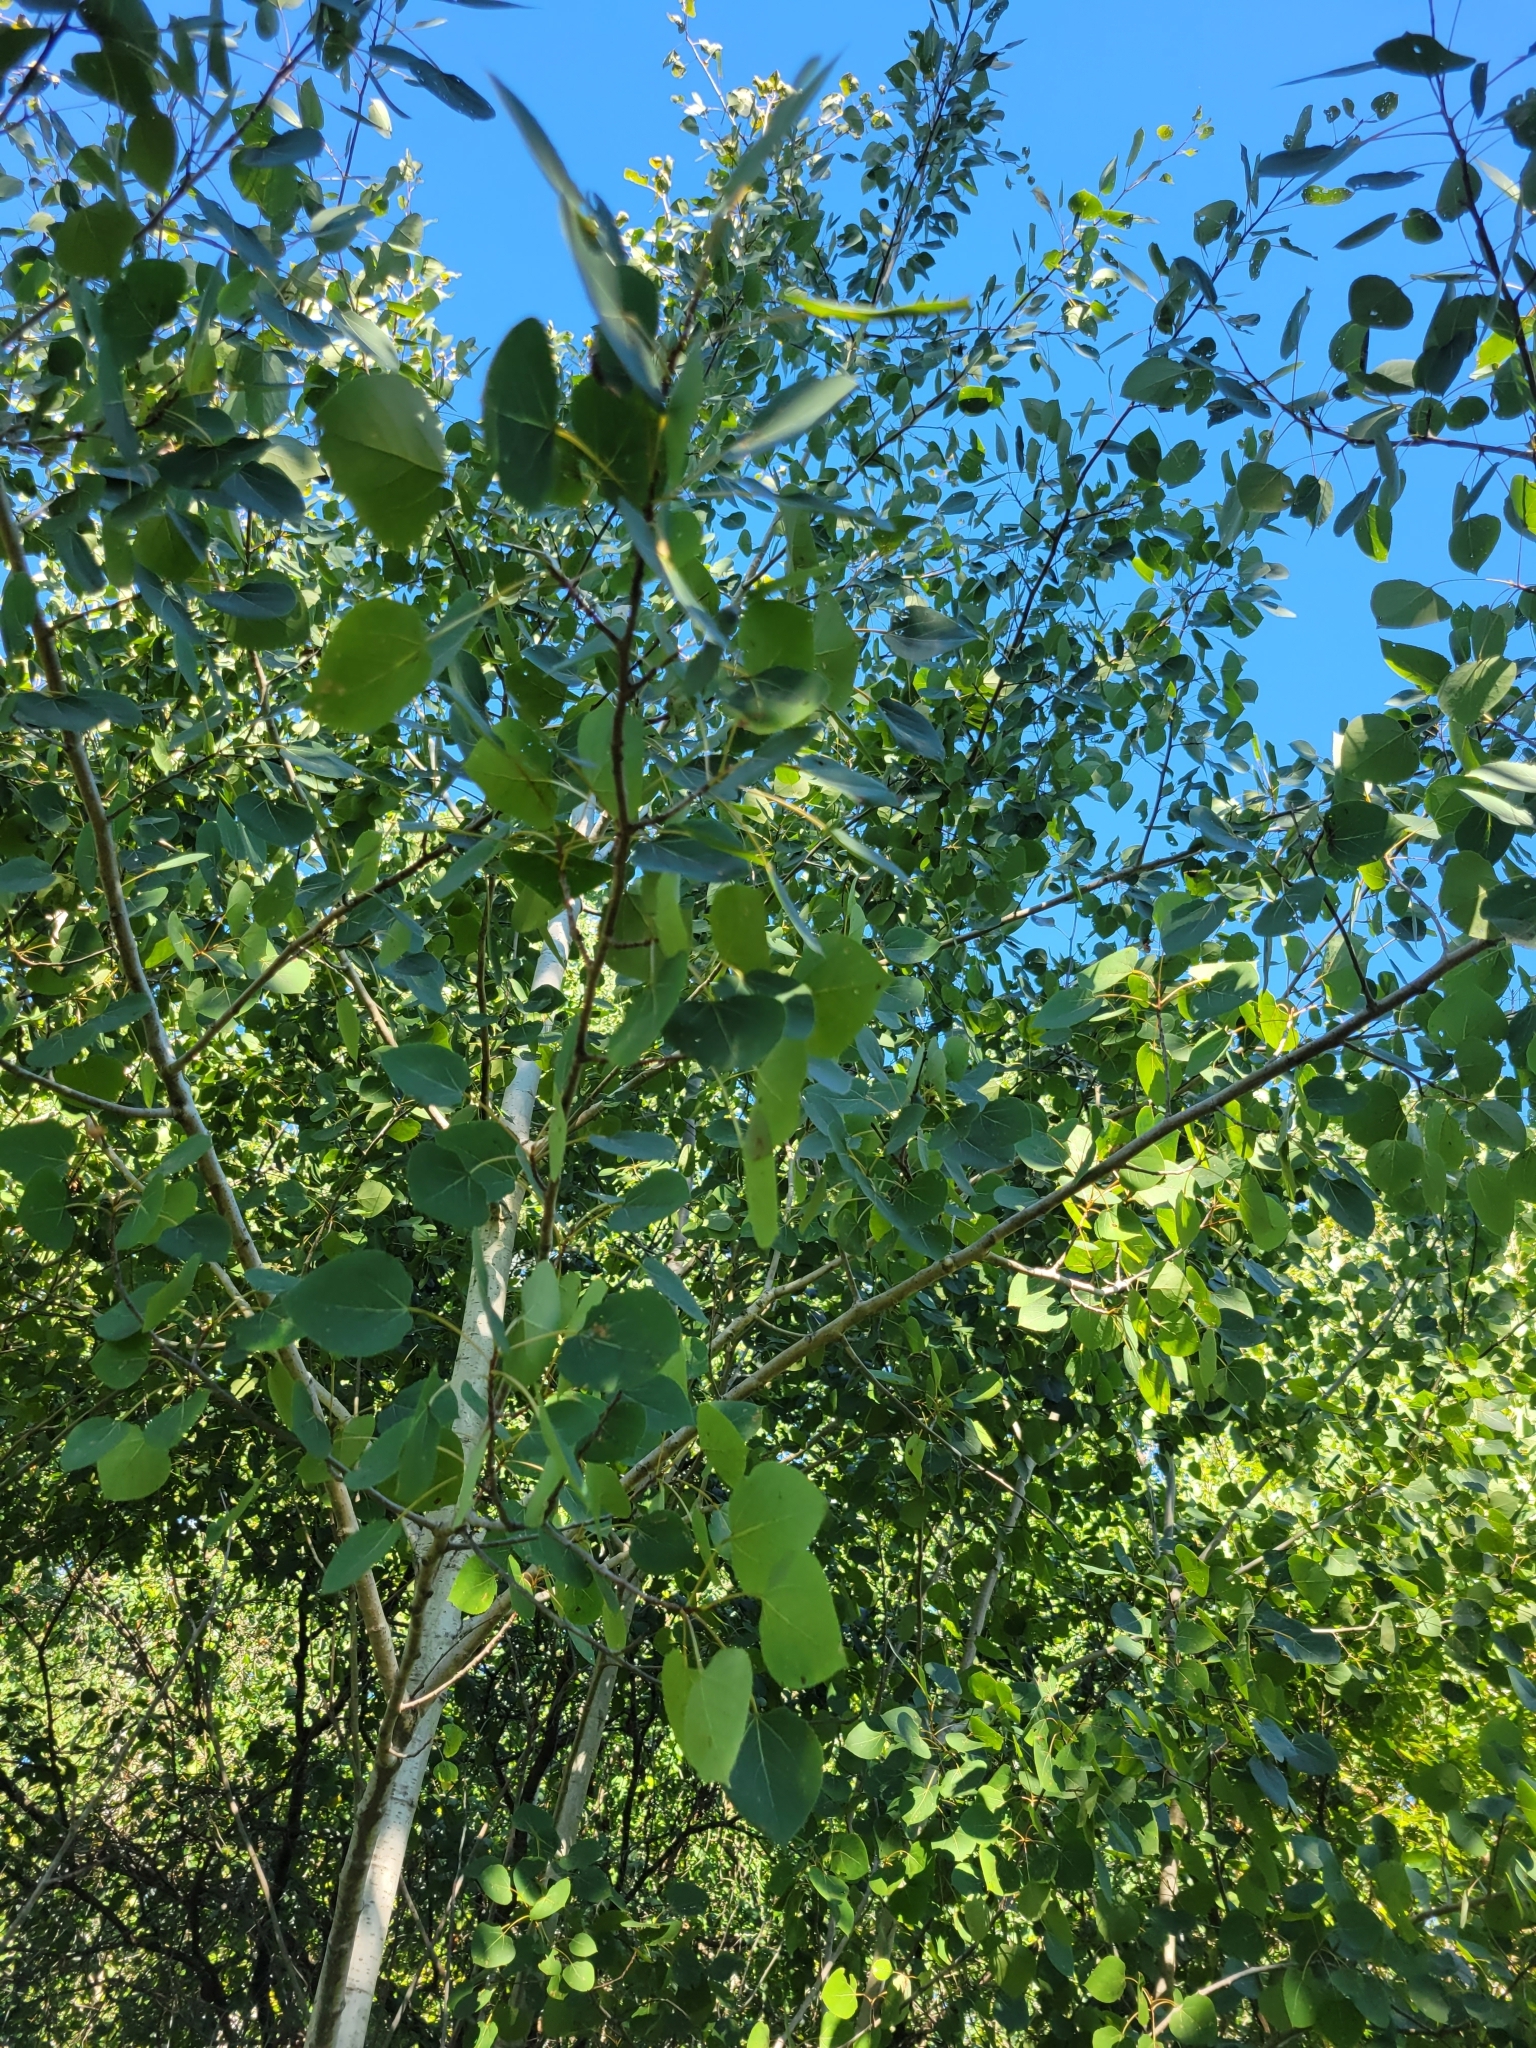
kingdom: Plantae
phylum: Tracheophyta
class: Magnoliopsida
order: Malpighiales
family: Salicaceae
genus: Populus
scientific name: Populus tremuloides
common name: Quaking aspen
